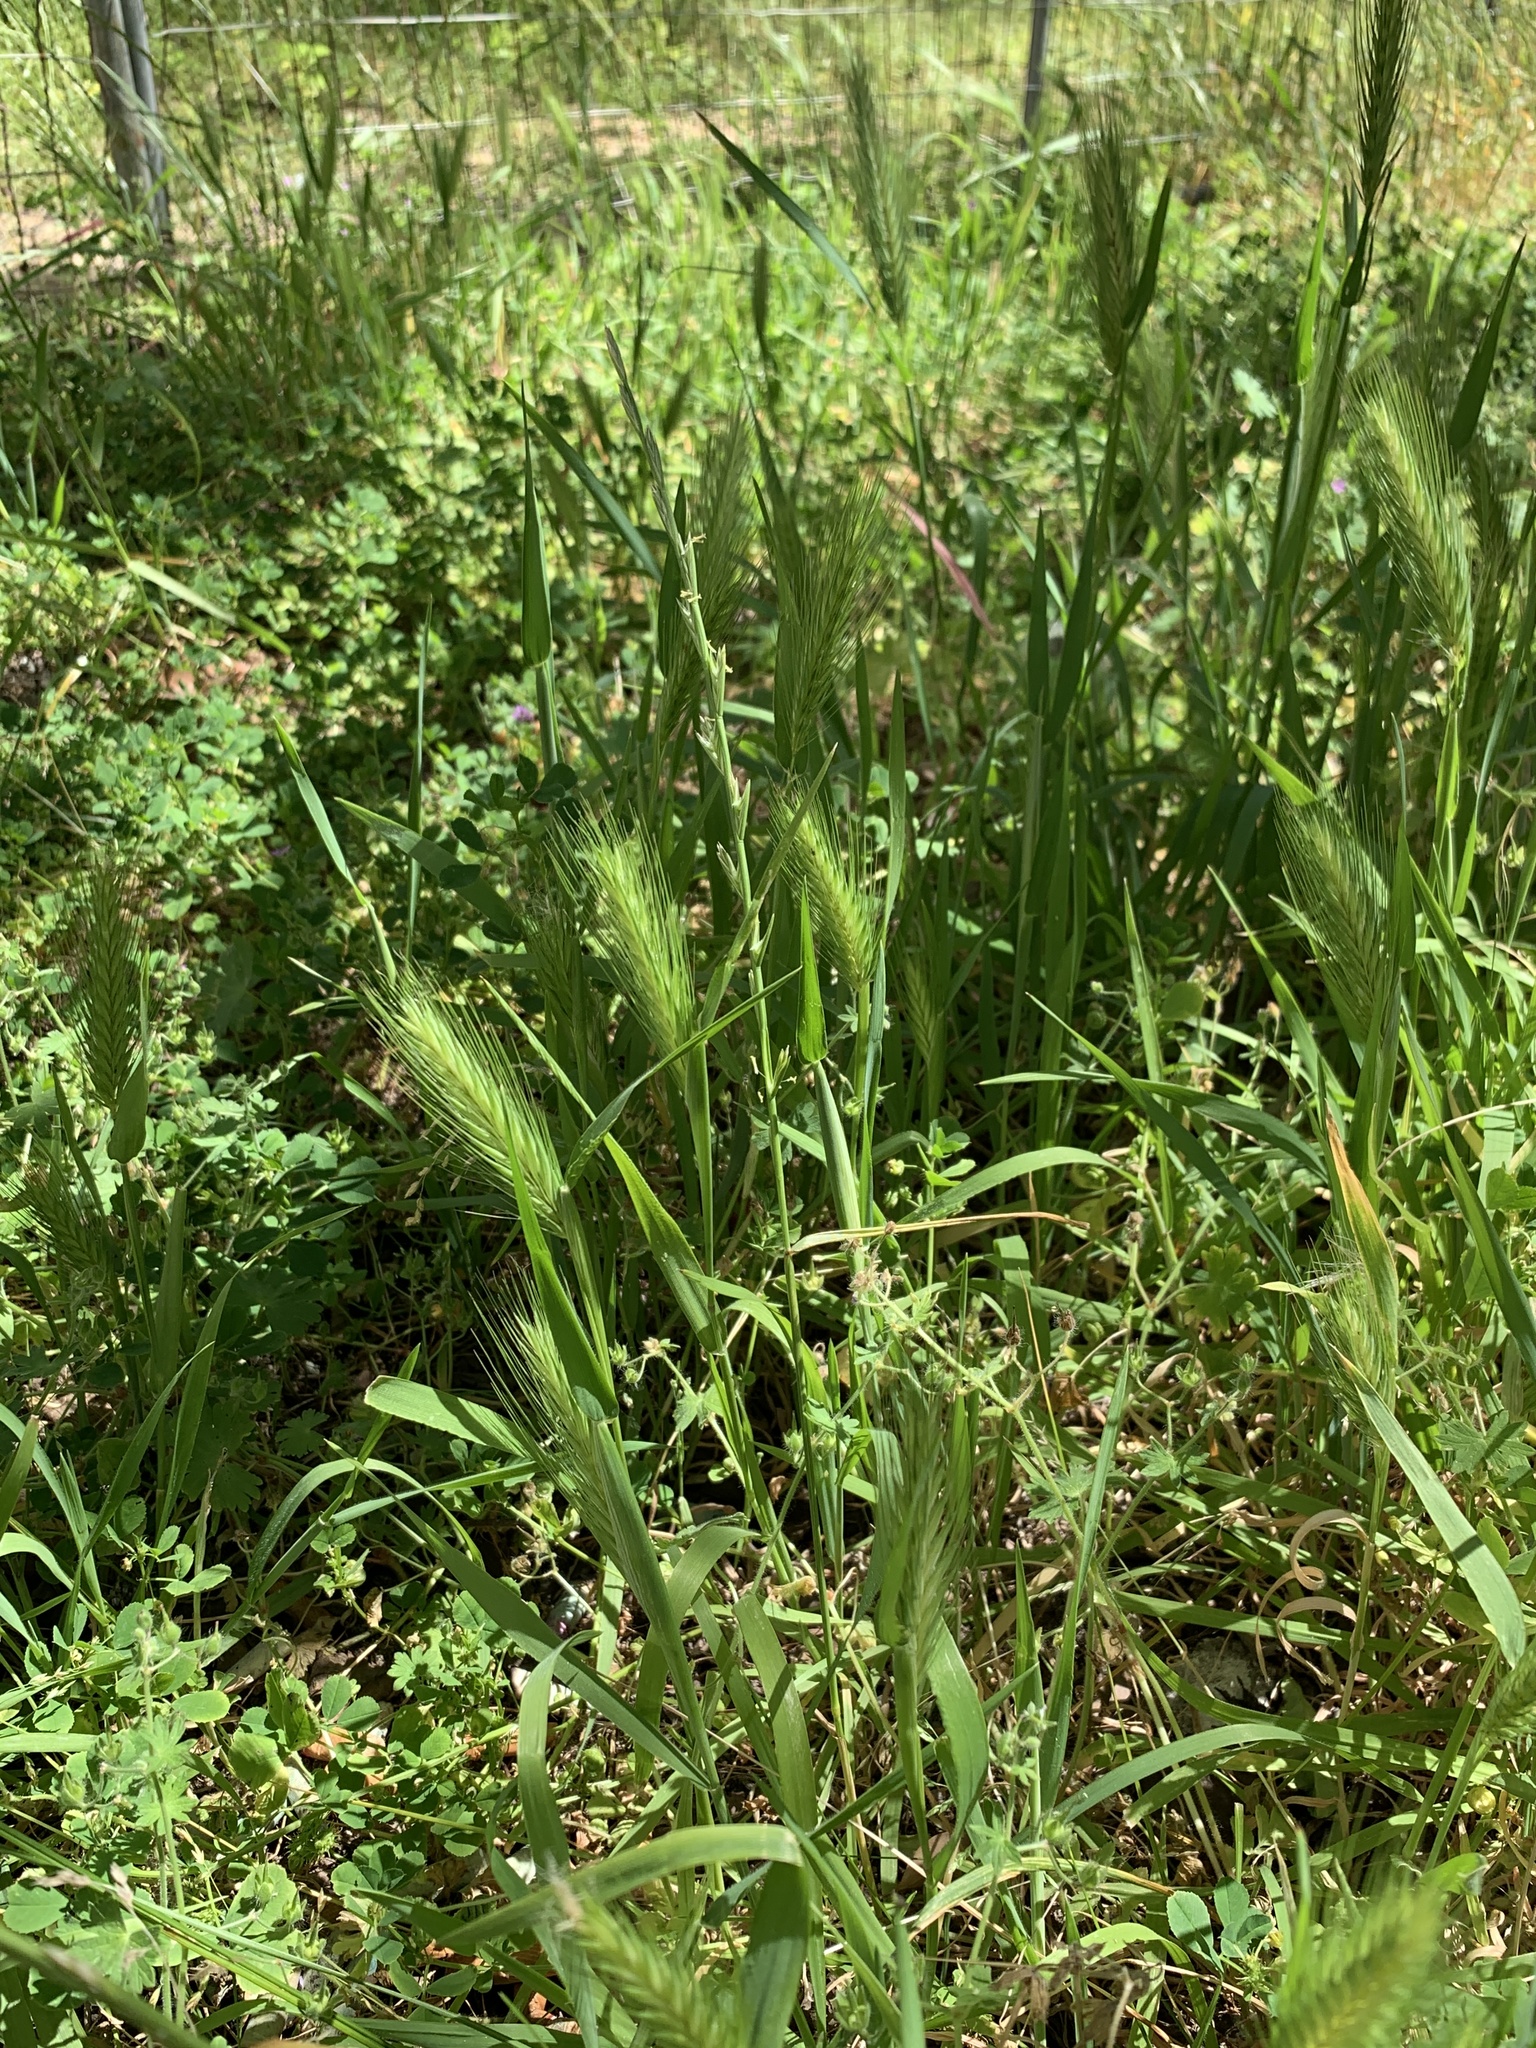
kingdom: Plantae
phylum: Tracheophyta
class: Liliopsida
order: Poales
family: Poaceae
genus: Hordeum
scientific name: Hordeum murinum
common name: Wall barley
